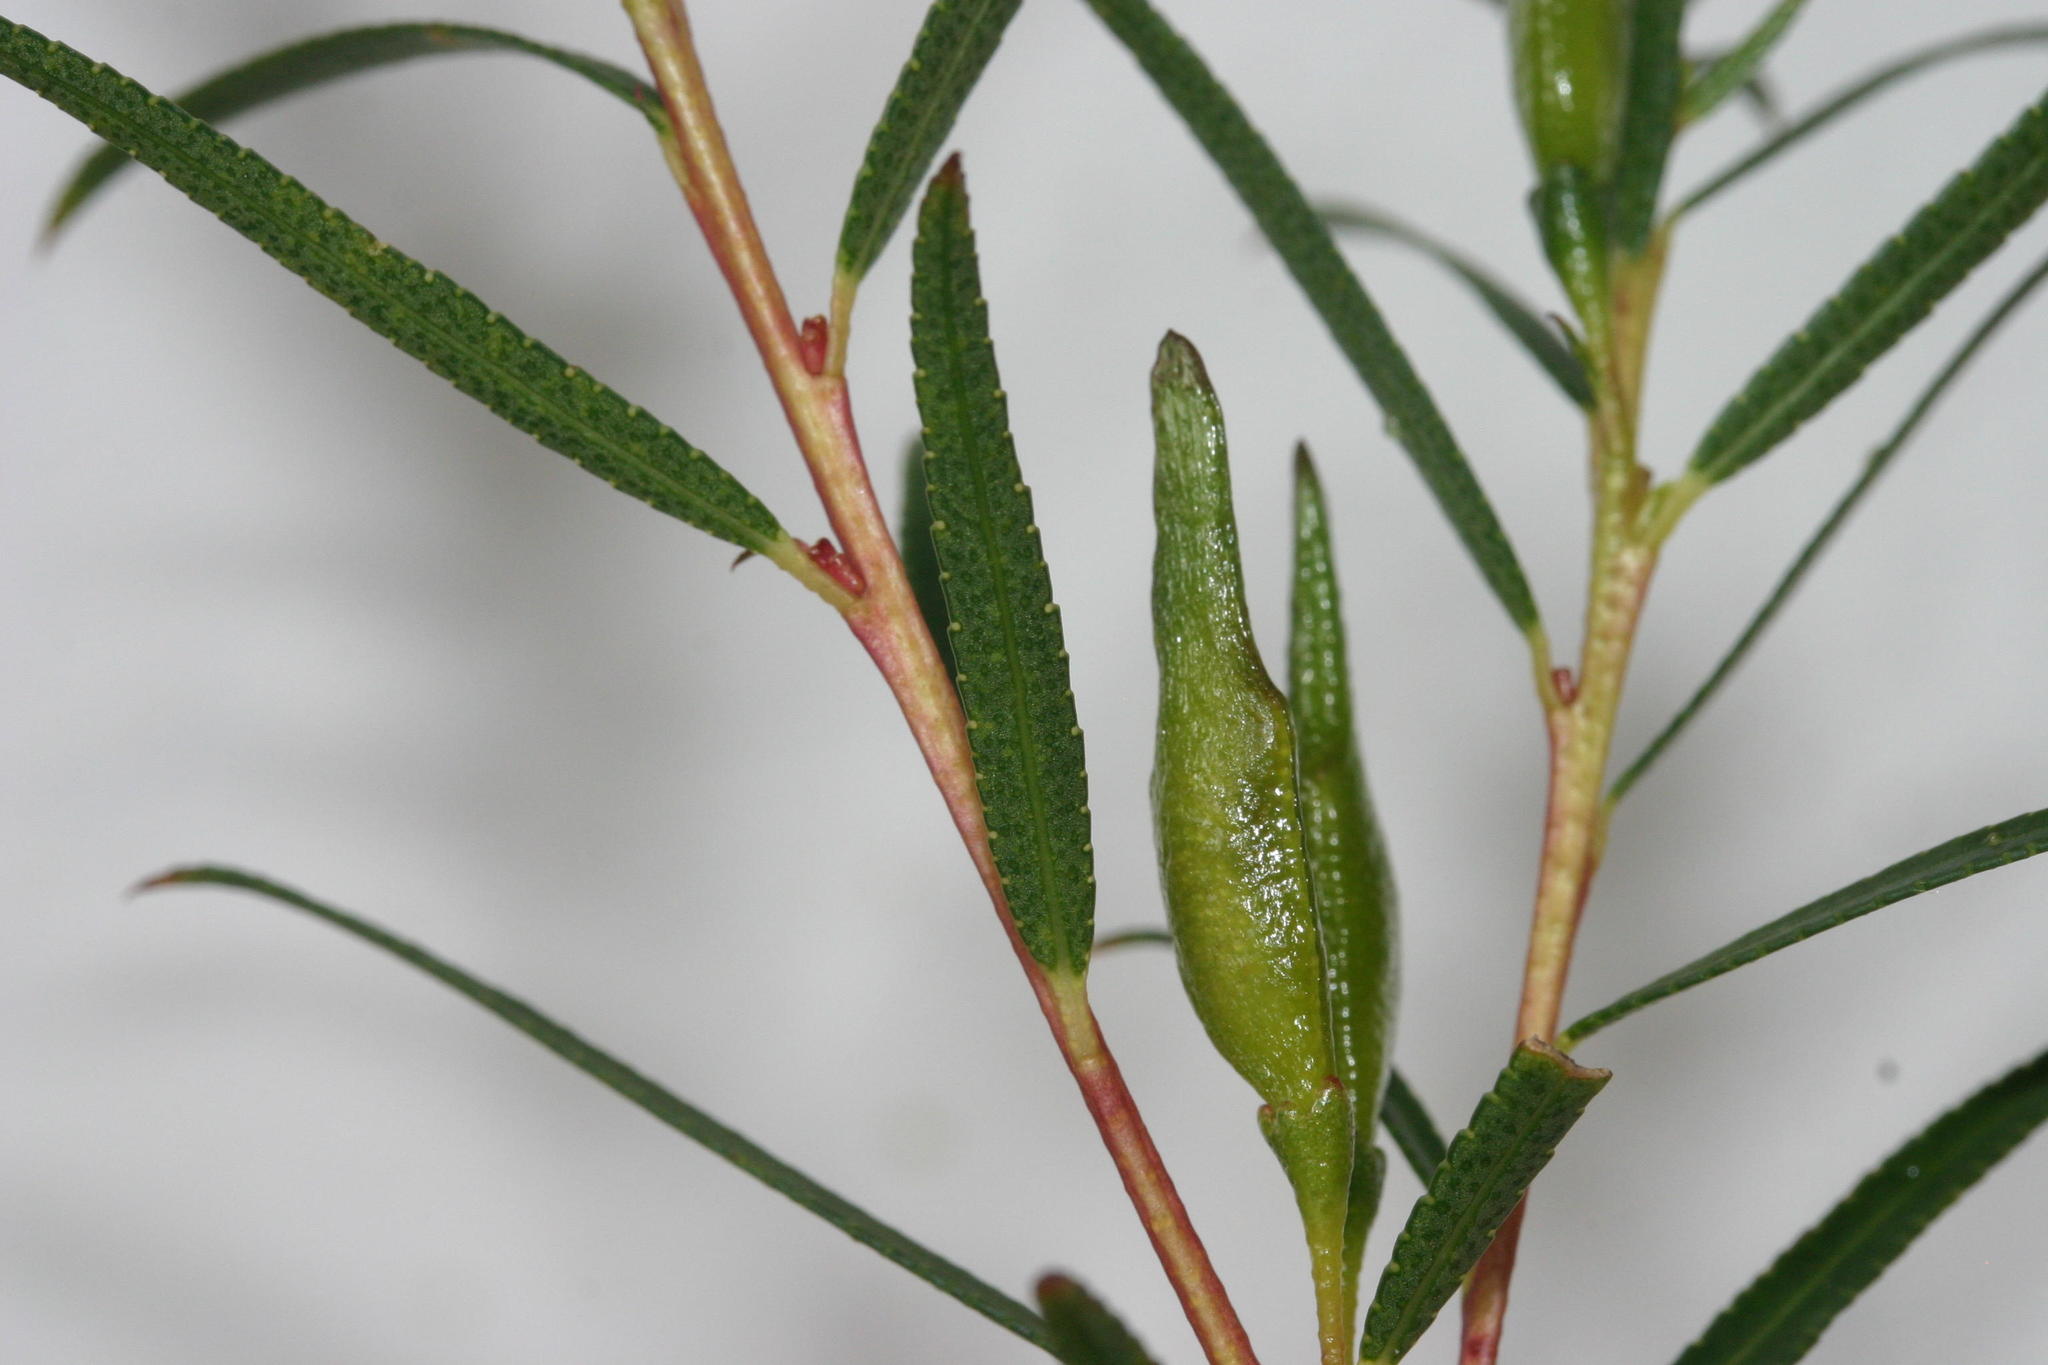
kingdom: Plantae
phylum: Tracheophyta
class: Magnoliopsida
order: Sapindales
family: Rutaceae
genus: Empleurum
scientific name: Empleurum unicapsulare
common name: False buchu
